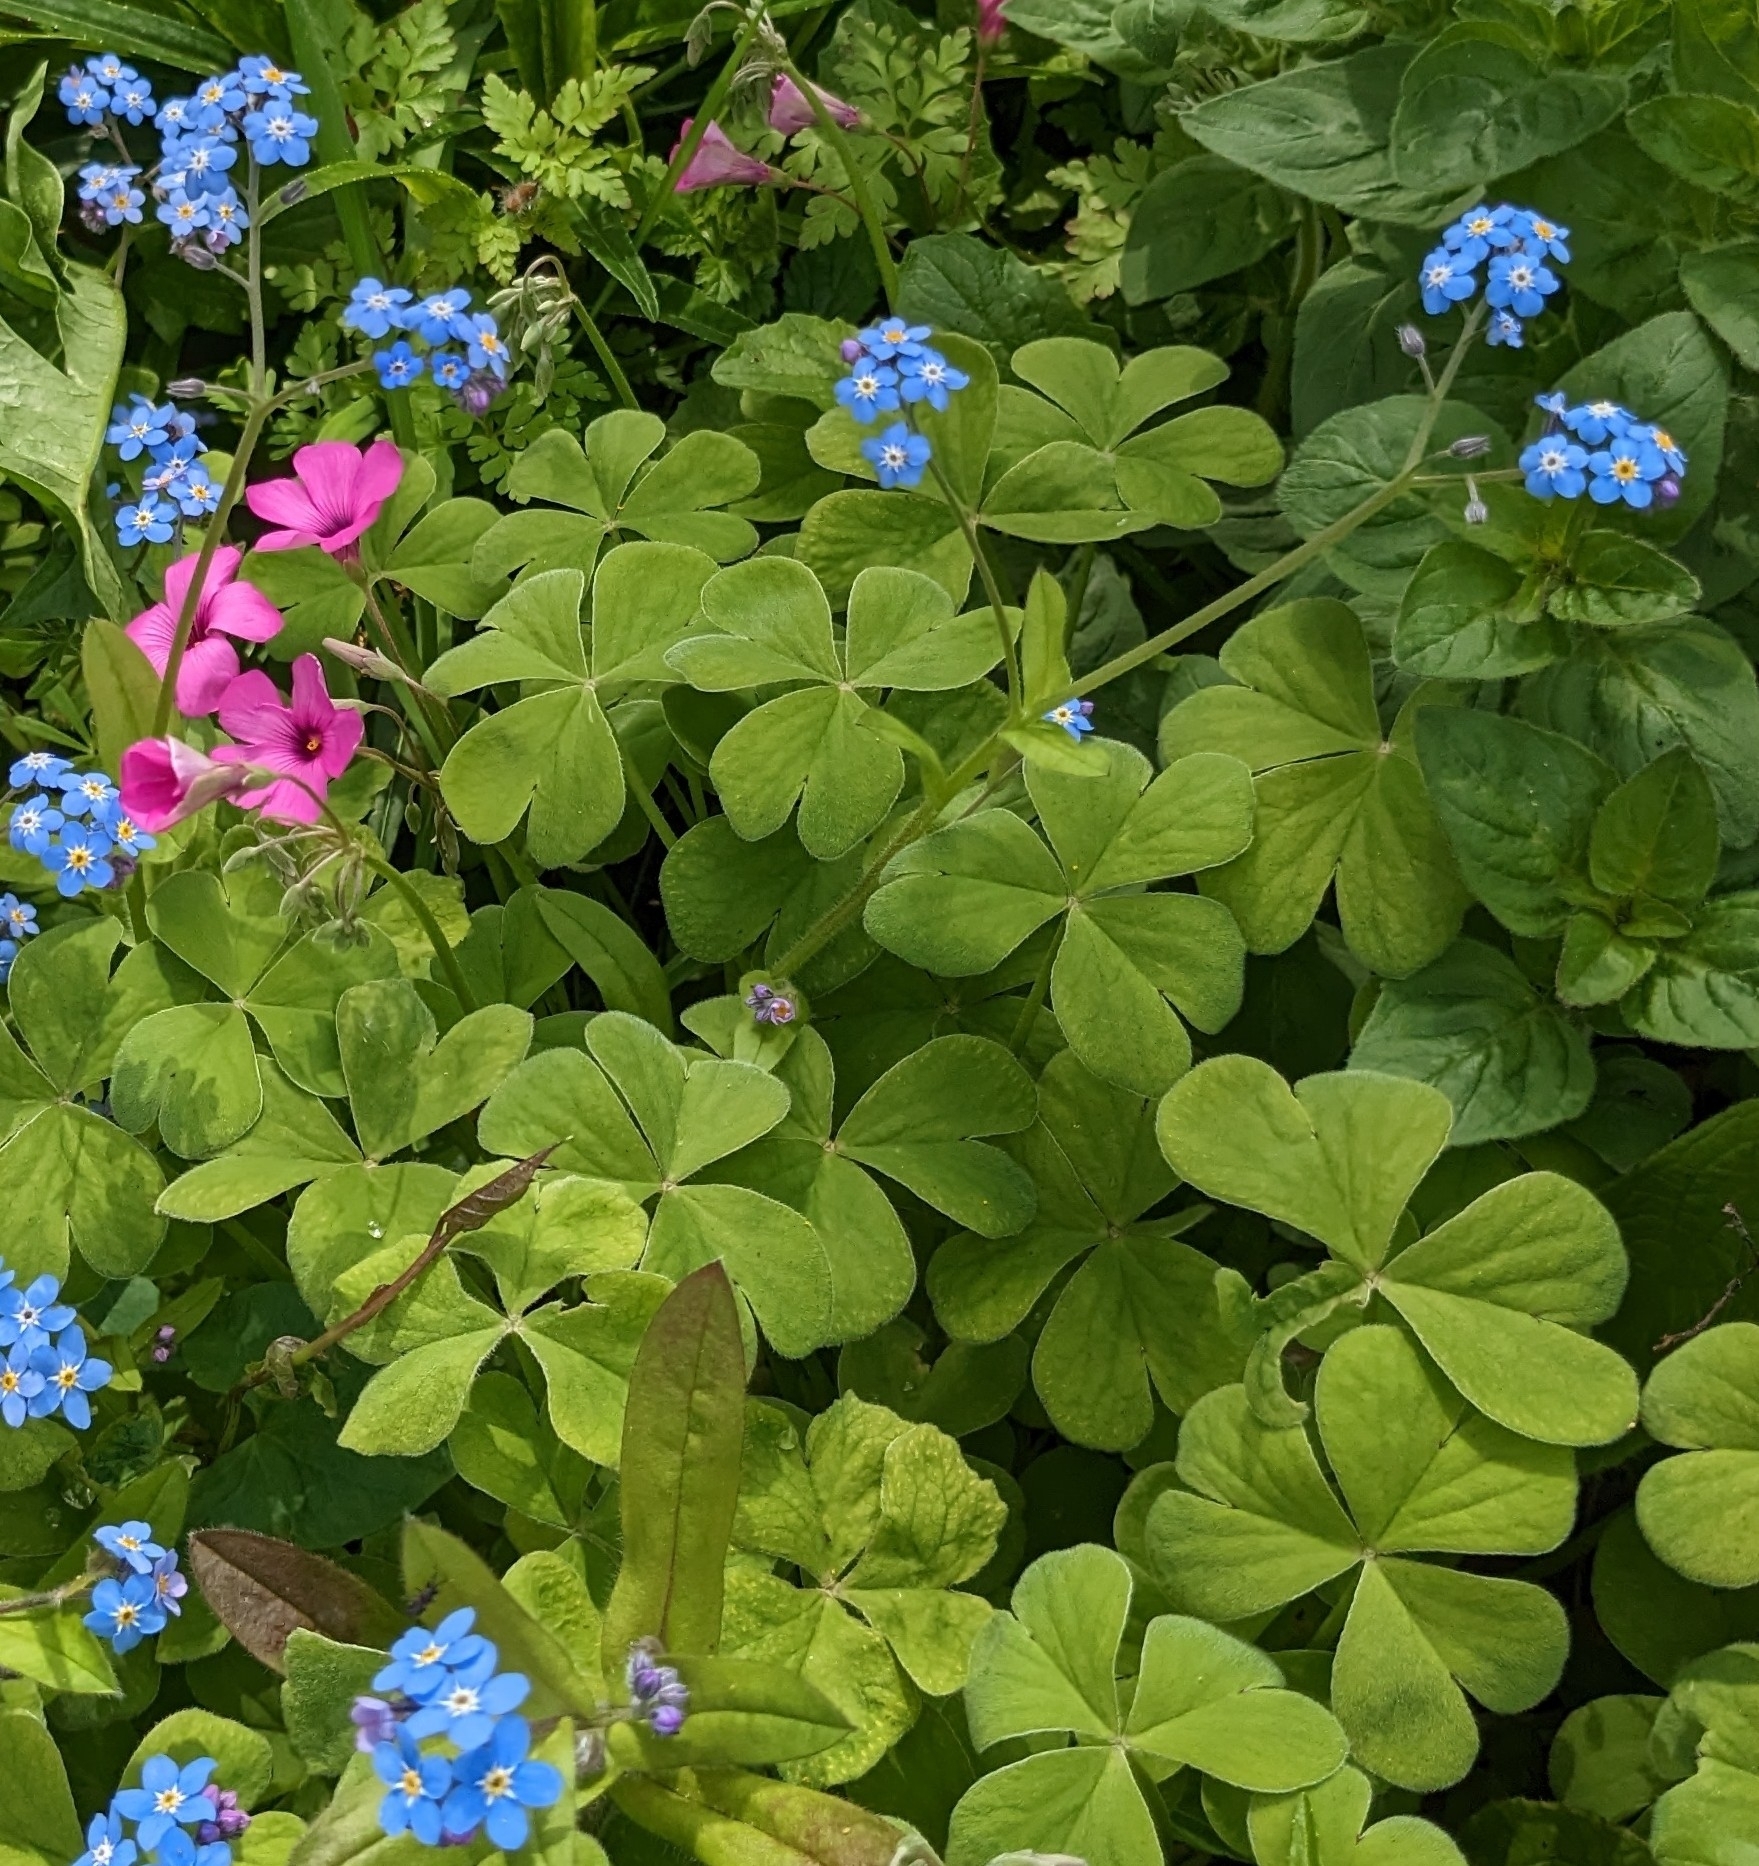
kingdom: Plantae
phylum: Tracheophyta
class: Magnoliopsida
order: Oxalidales
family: Oxalidaceae
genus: Oxalis
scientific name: Oxalis articulata
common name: Pink-sorrel
